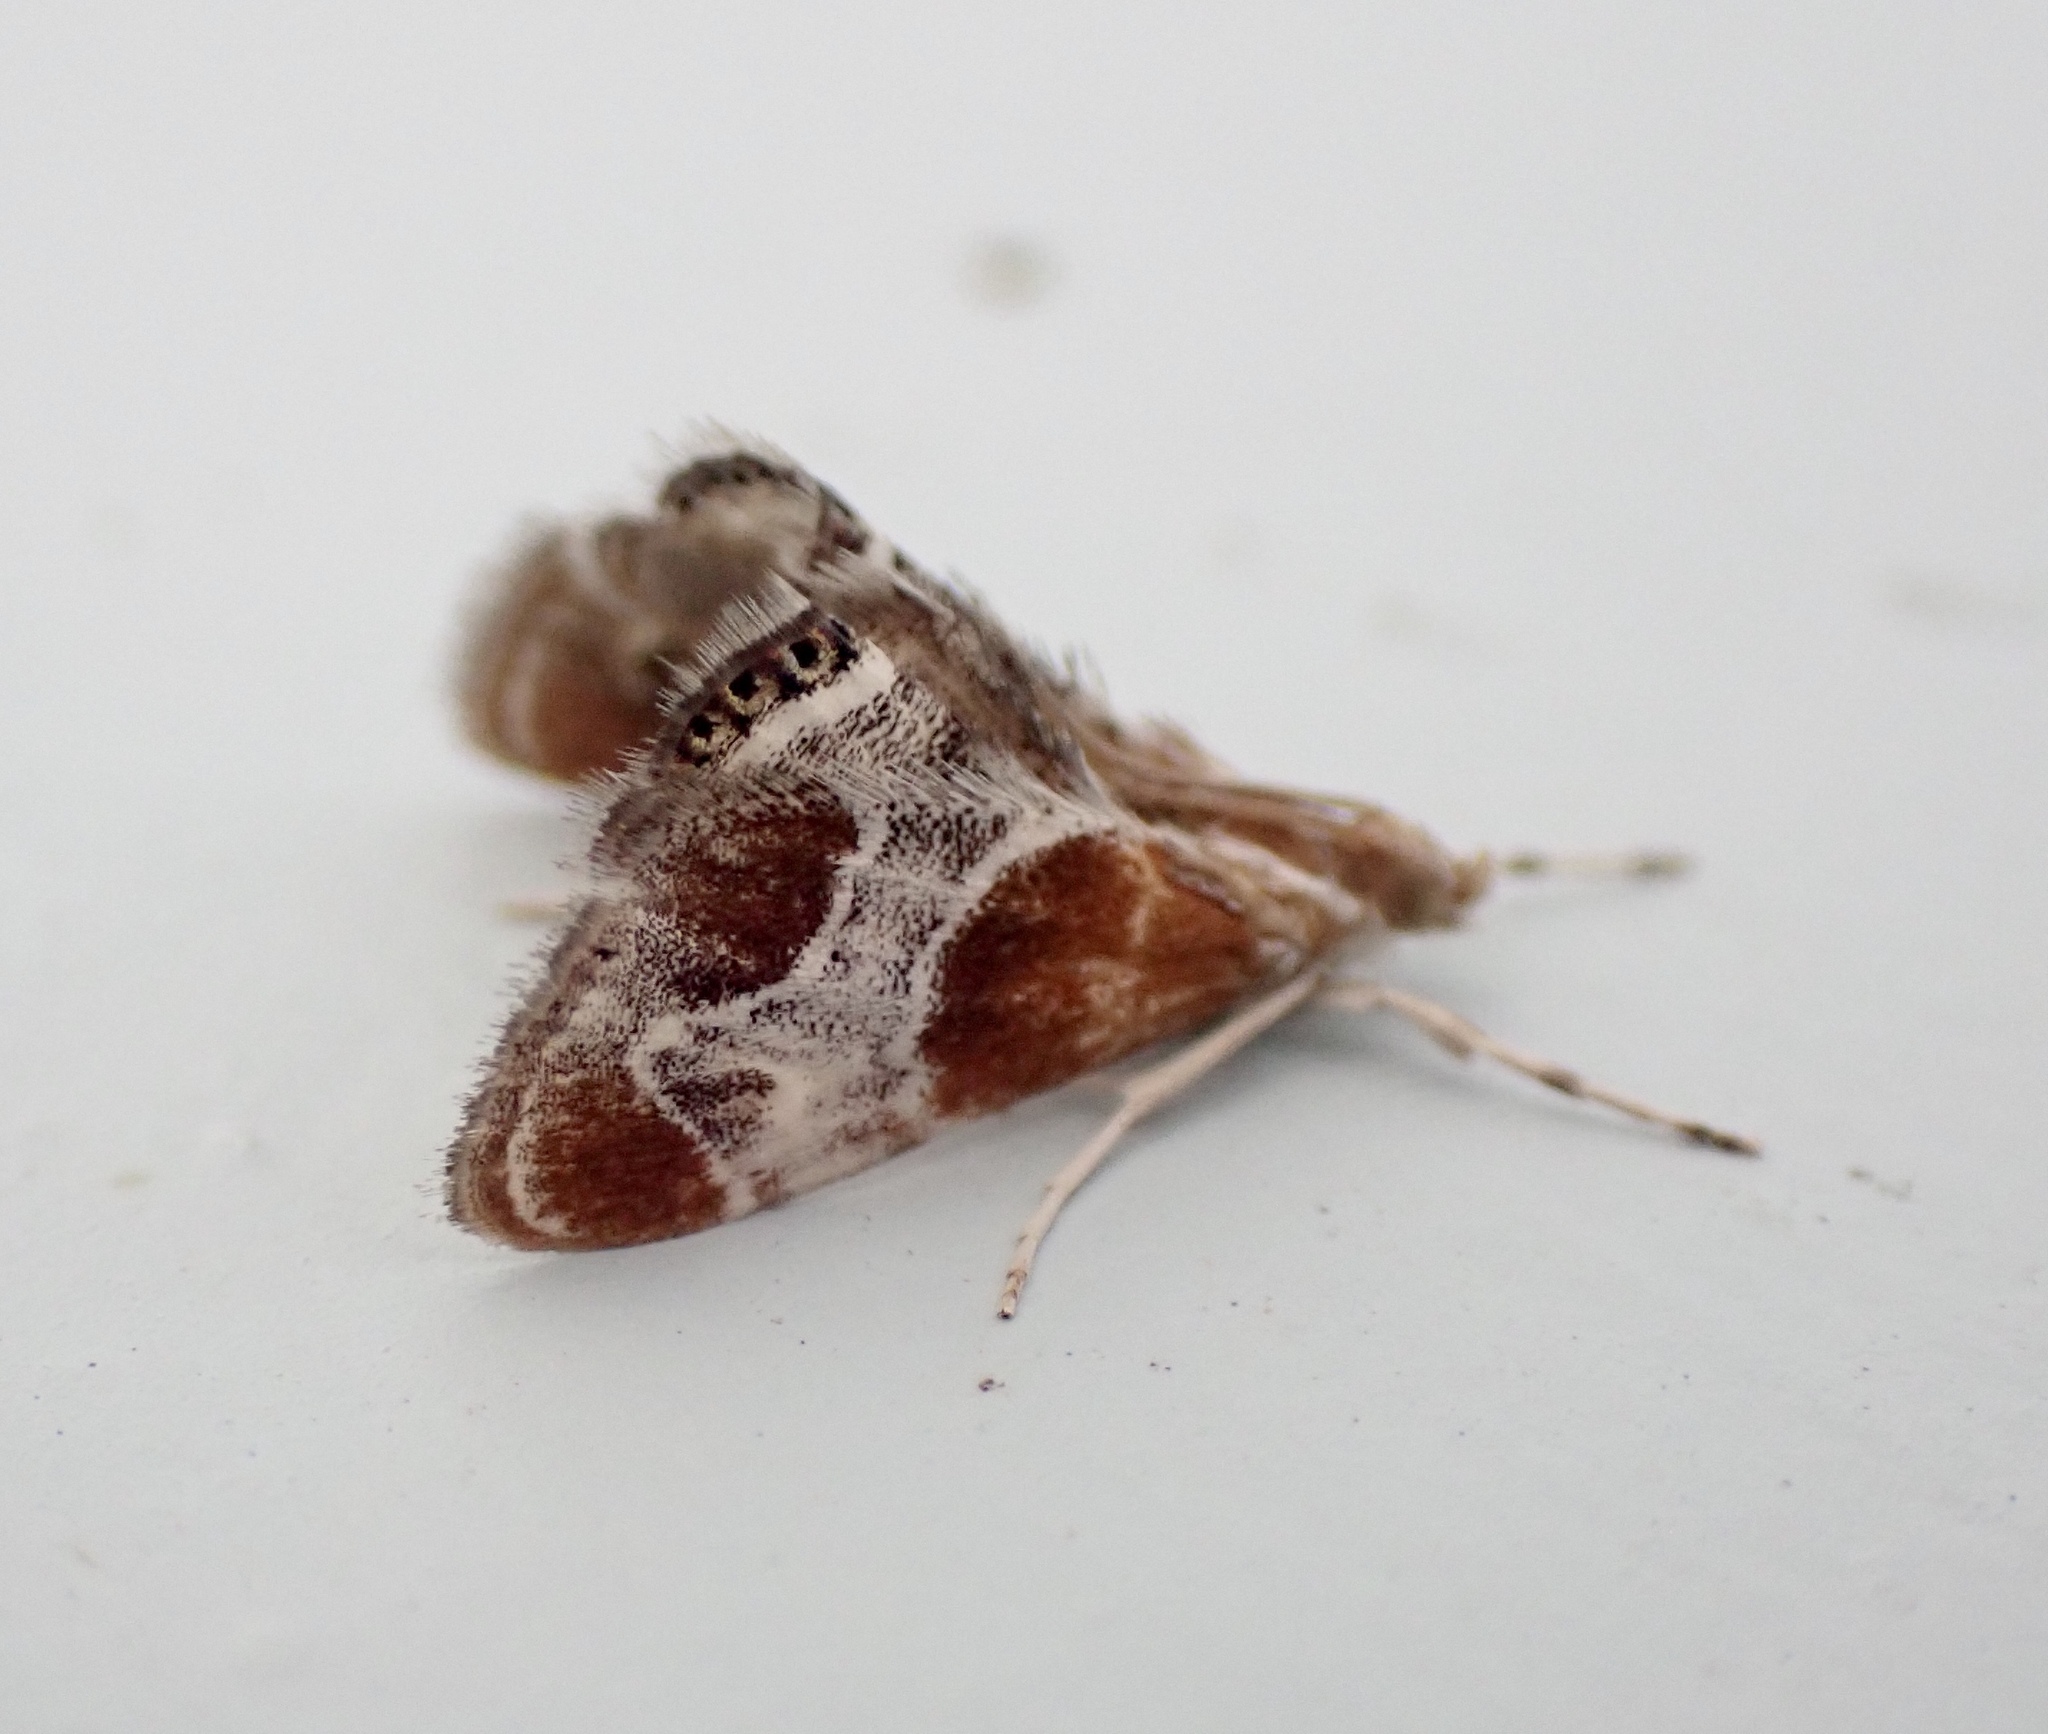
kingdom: Animalia
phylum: Arthropoda
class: Insecta
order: Lepidoptera
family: Crambidae
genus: Chalcoela
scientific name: Chalcoela pegasalis
